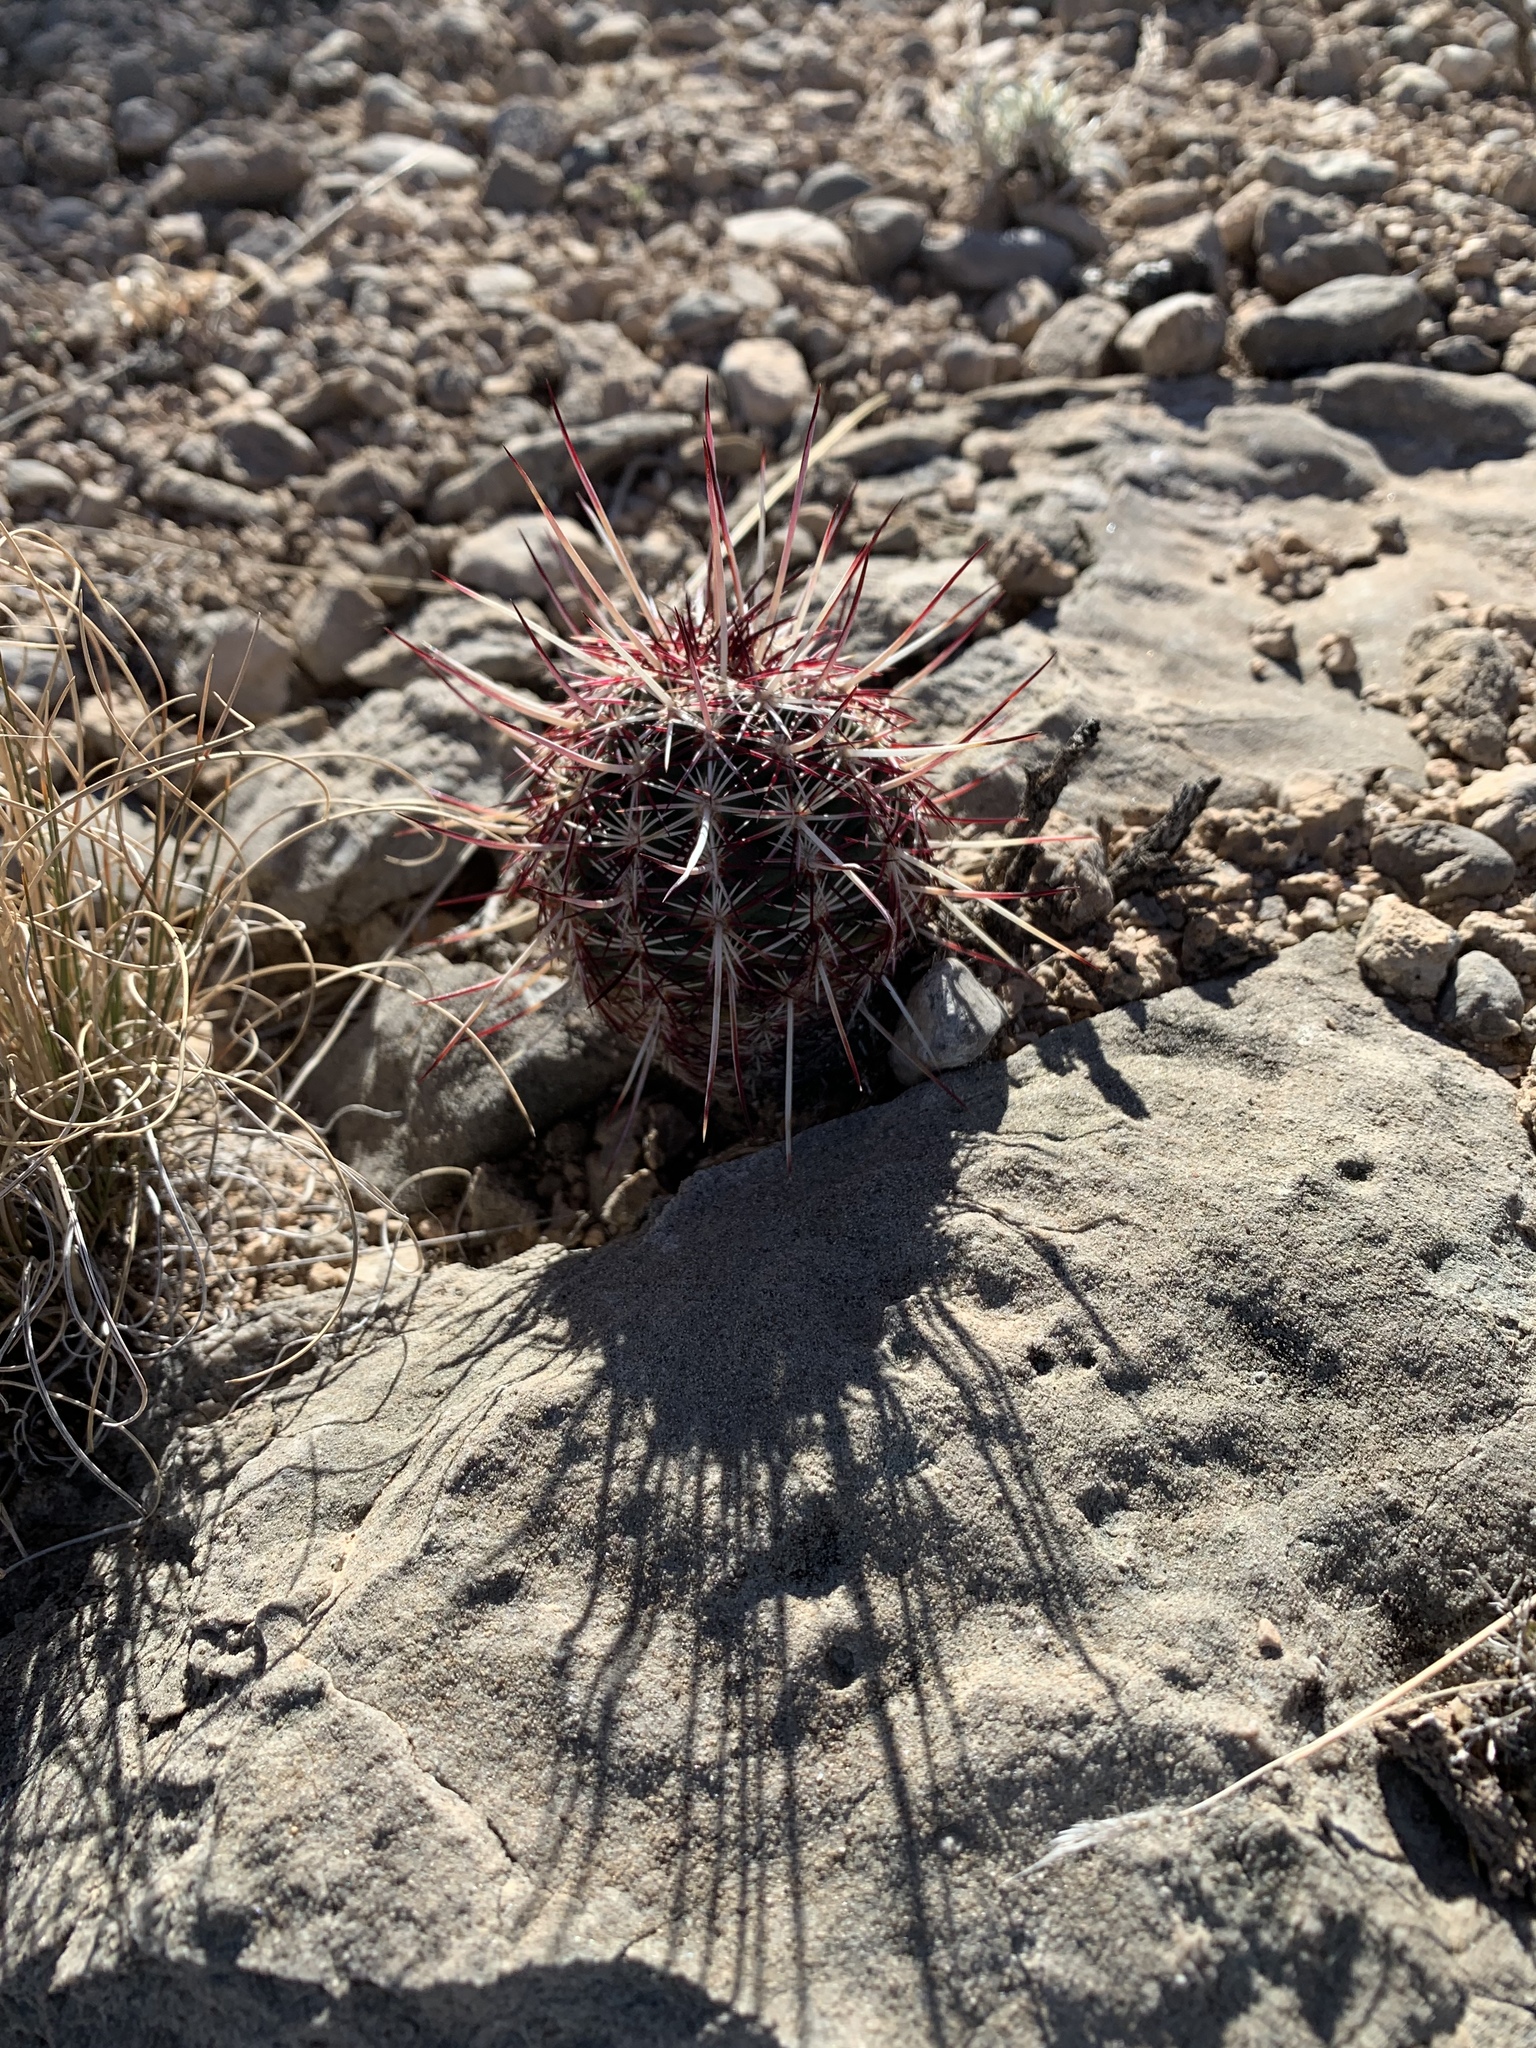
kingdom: Plantae
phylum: Tracheophyta
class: Magnoliopsida
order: Caryophyllales
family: Cactaceae
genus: Echinocereus
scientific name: Echinocereus viridiflorus
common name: Nylon hedgehog cactus
